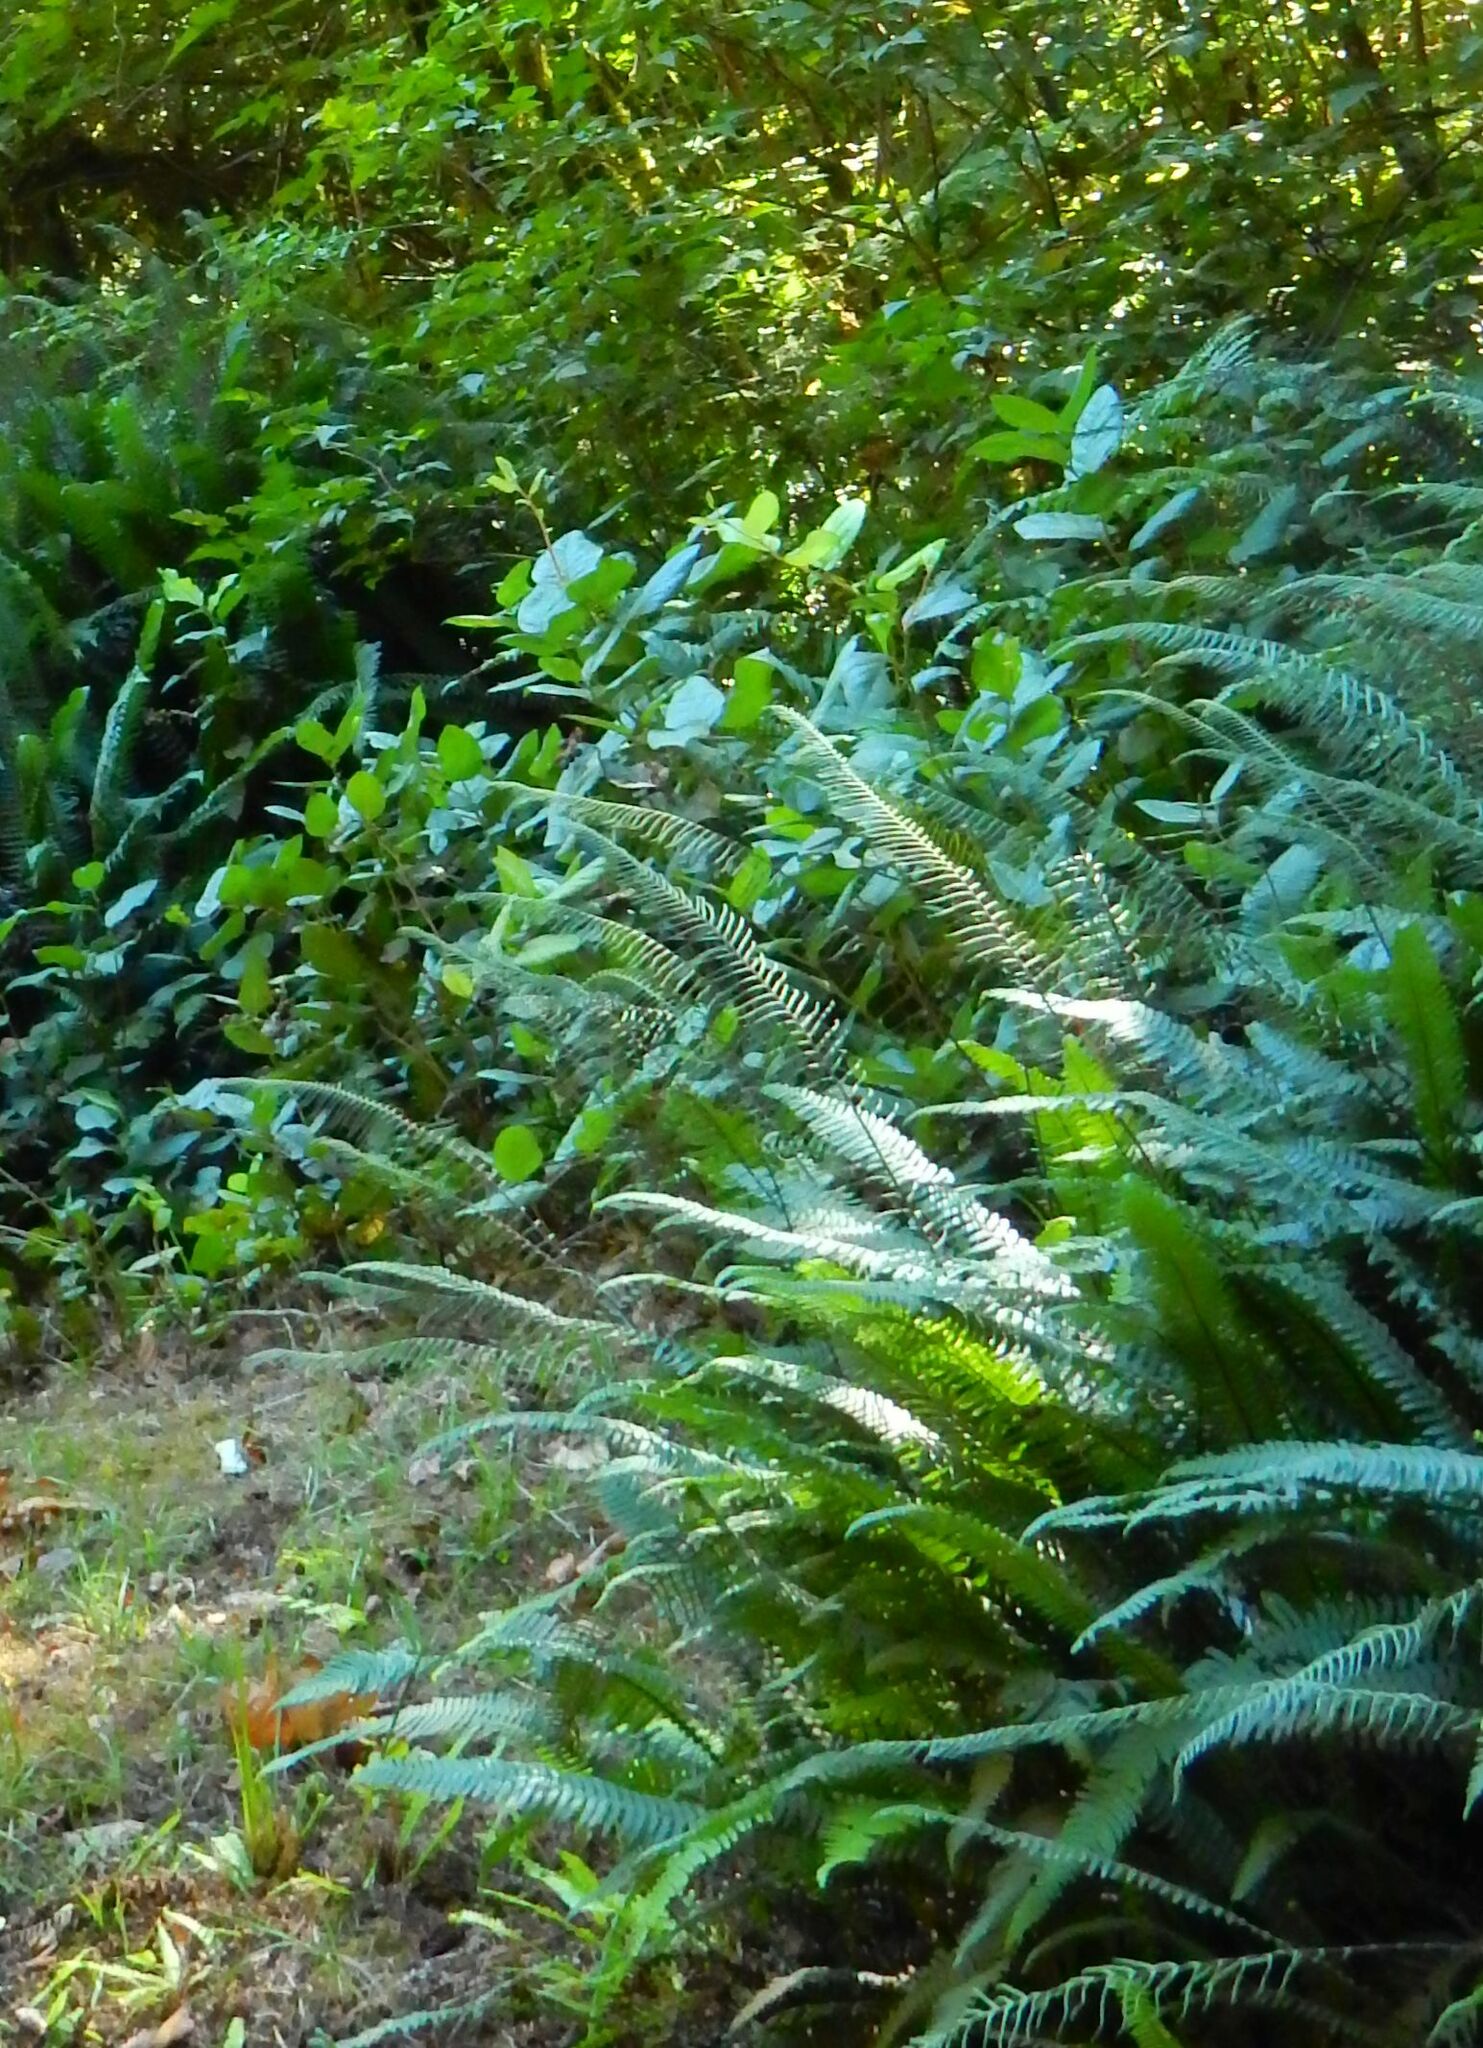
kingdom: Plantae
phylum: Tracheophyta
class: Polypodiopsida
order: Polypodiales
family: Blechnaceae
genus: Struthiopteris
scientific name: Struthiopteris spicant
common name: Deer fern
